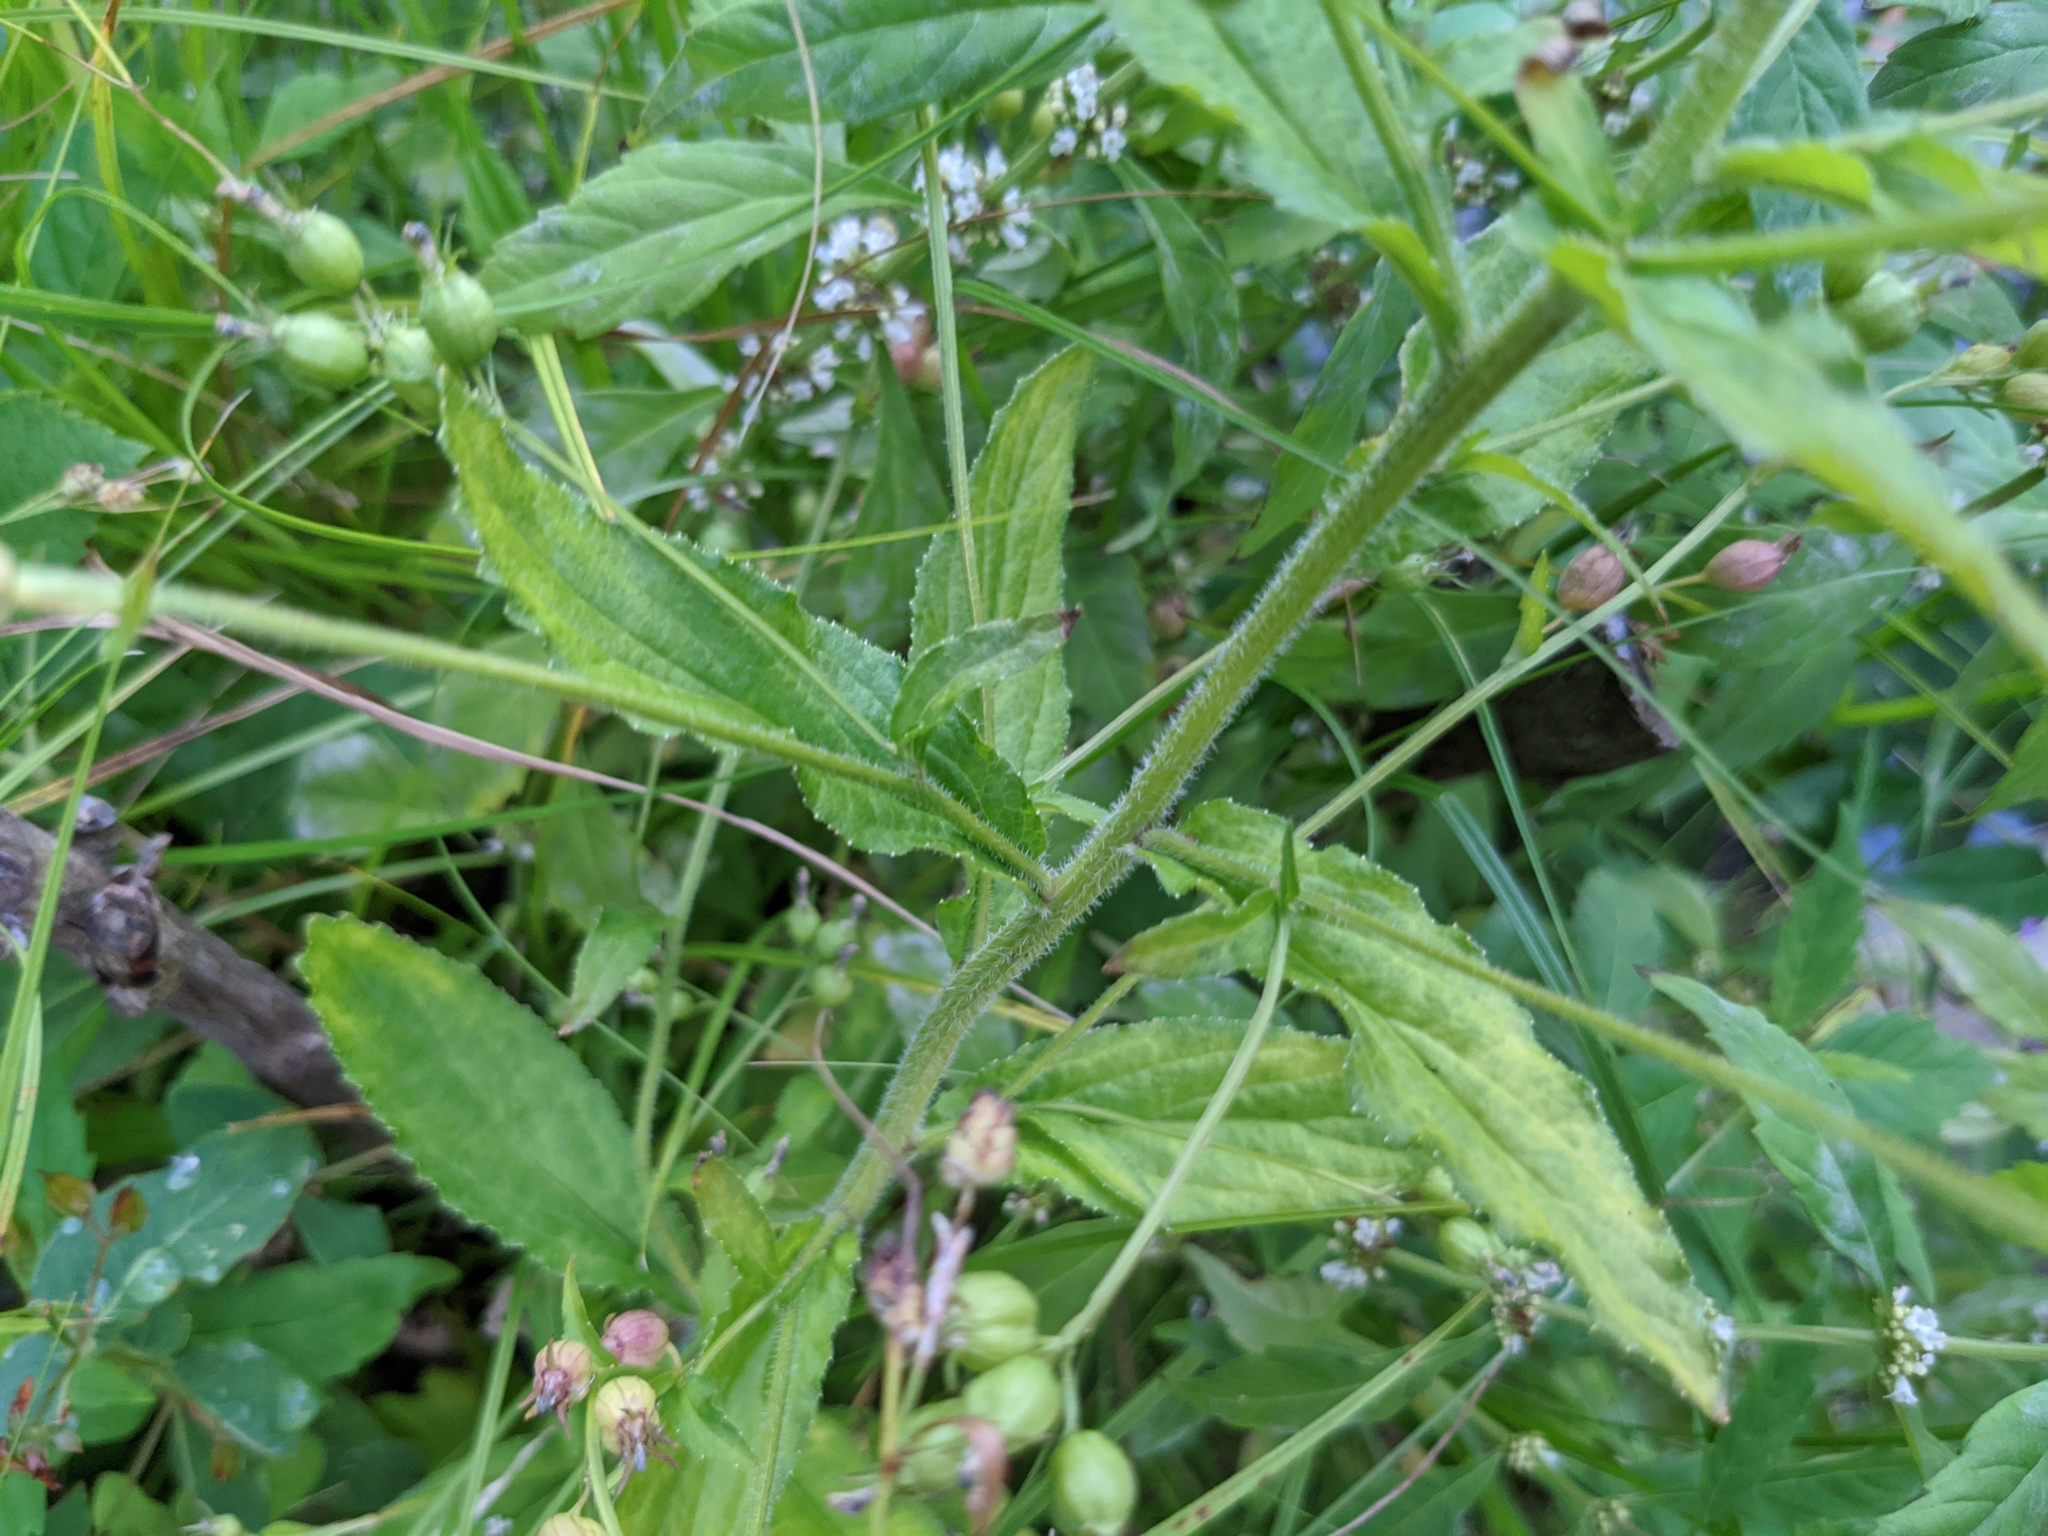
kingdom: Plantae
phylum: Tracheophyta
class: Magnoliopsida
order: Asterales
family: Campanulaceae
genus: Lobelia
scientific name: Lobelia inflata
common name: Indian tobacco
